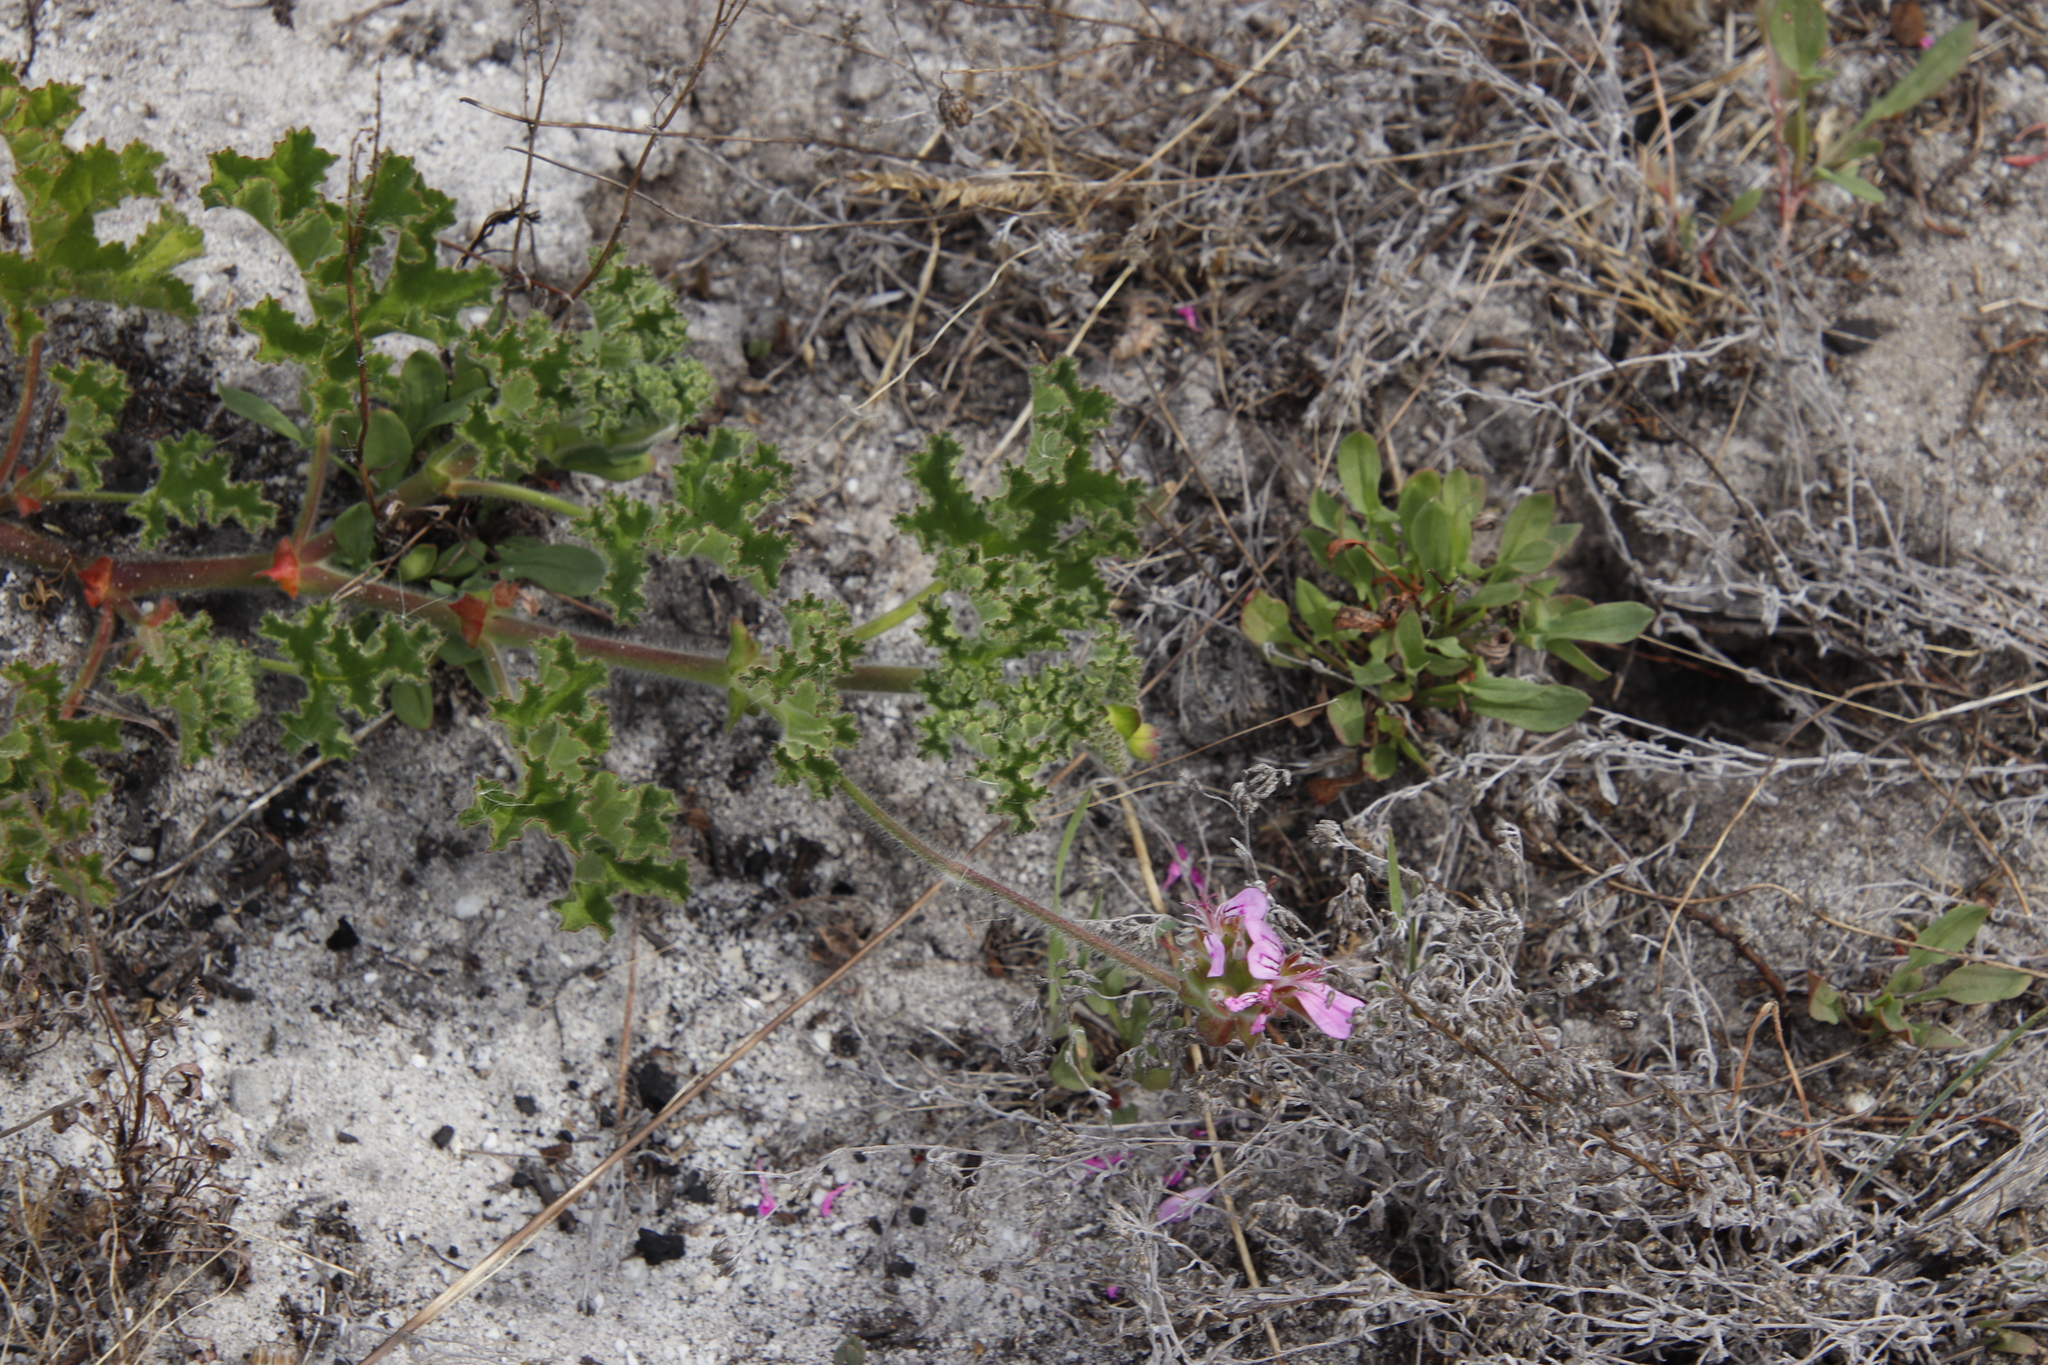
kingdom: Plantae
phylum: Tracheophyta
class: Magnoliopsida
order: Geraniales
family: Geraniaceae
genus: Pelargonium
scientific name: Pelargonium capitatum
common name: Rose scented geranium
